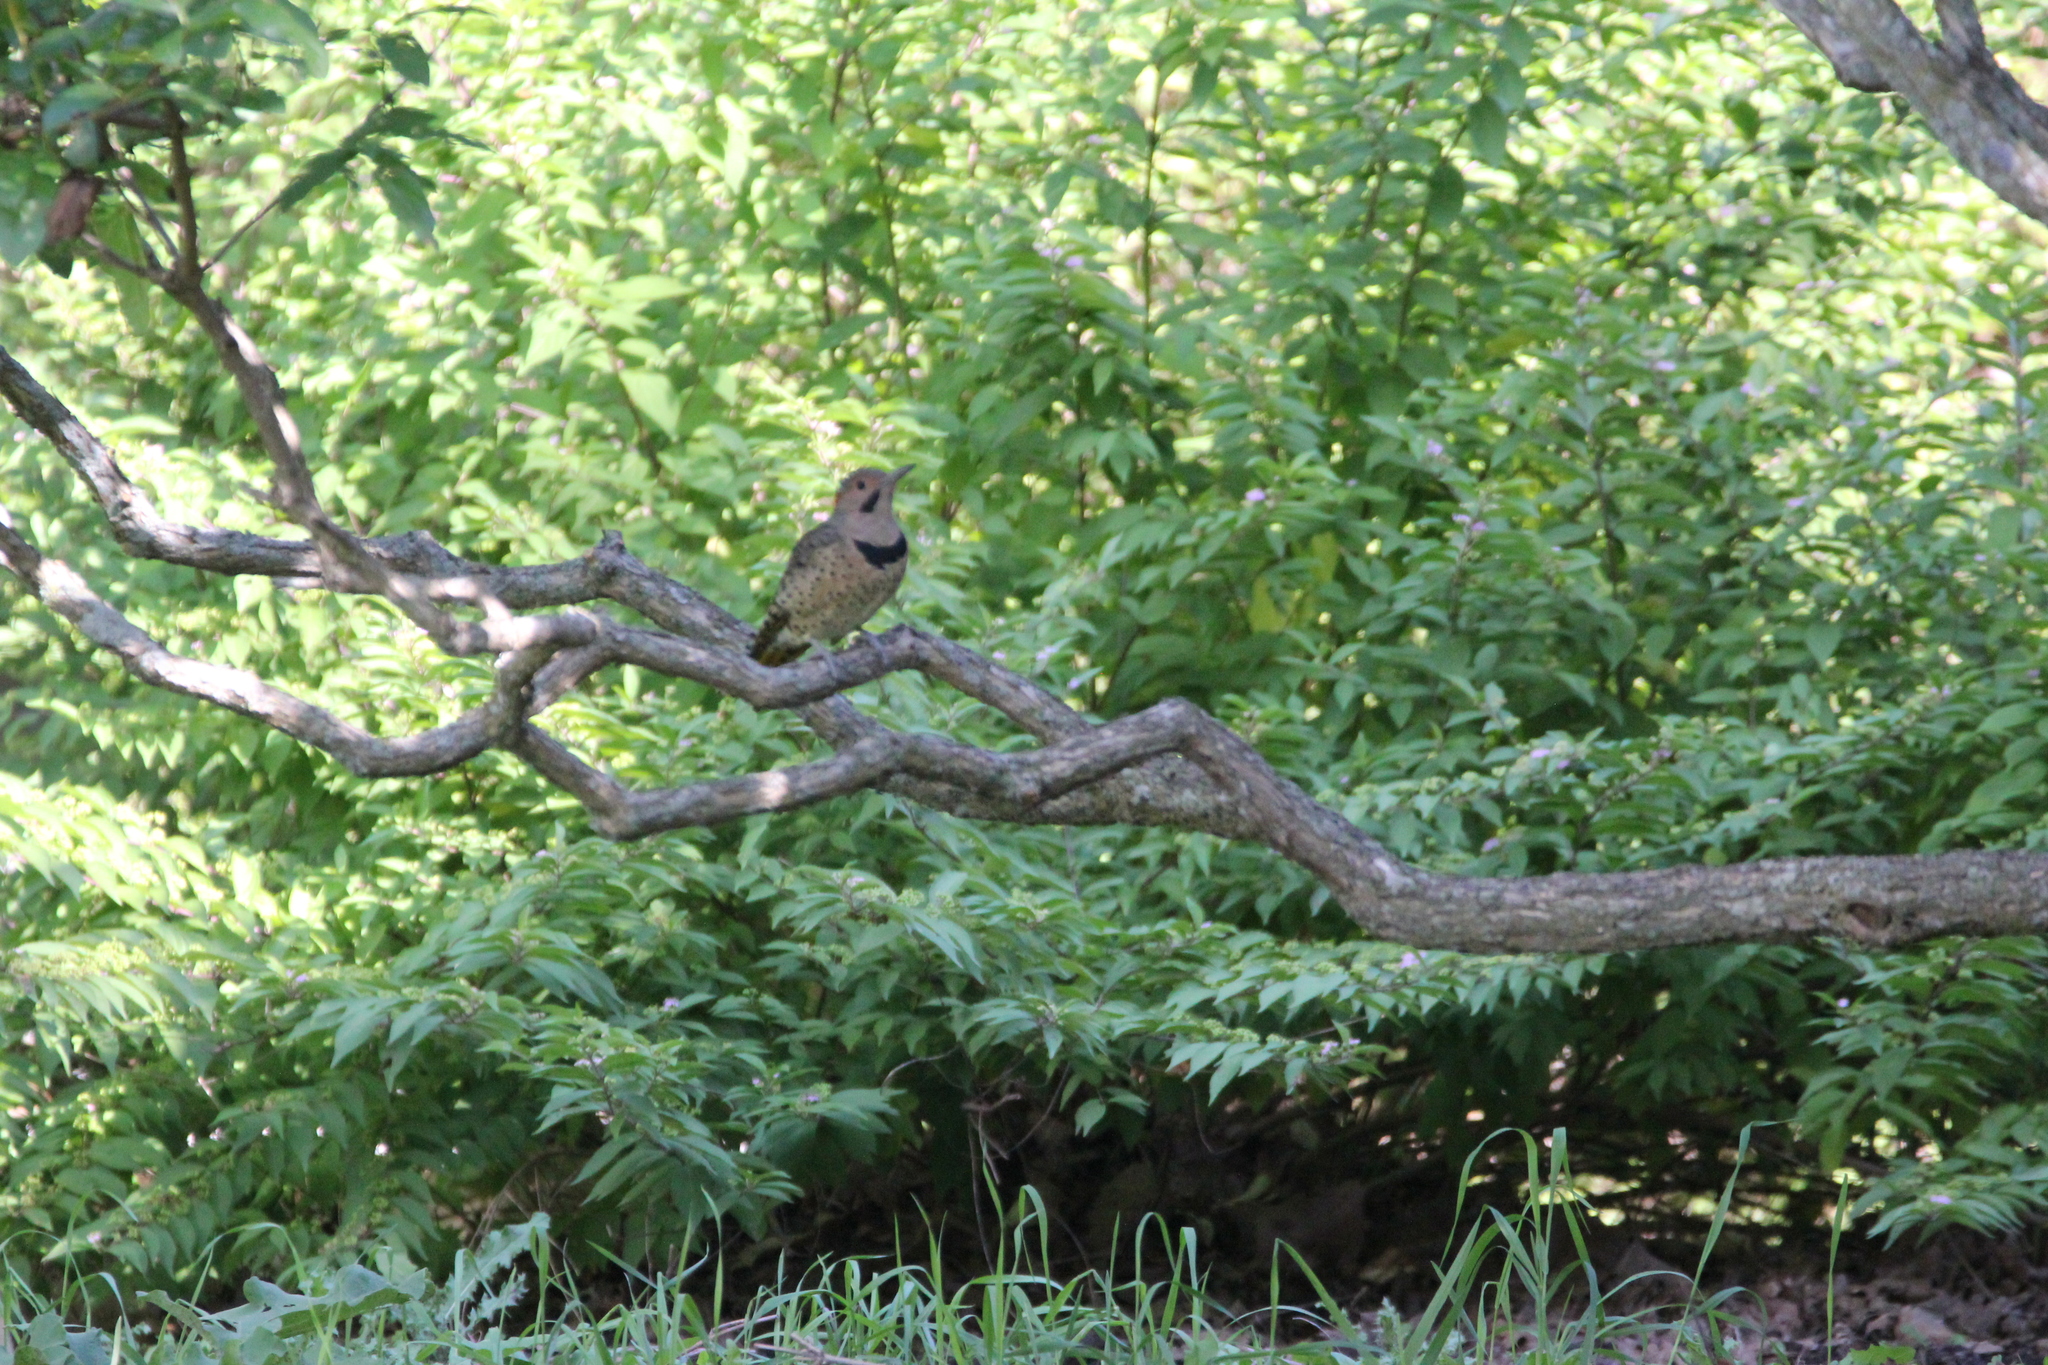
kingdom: Animalia
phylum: Chordata
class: Aves
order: Piciformes
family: Picidae
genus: Colaptes
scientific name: Colaptes auratus
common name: Northern flicker
